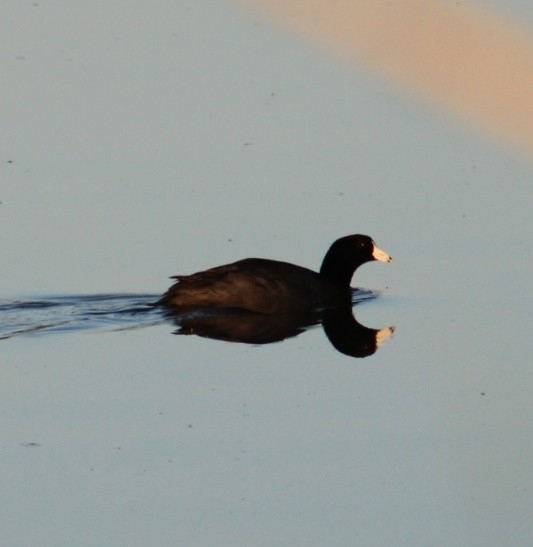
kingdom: Animalia
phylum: Chordata
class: Aves
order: Gruiformes
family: Rallidae
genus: Fulica
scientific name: Fulica americana
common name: American coot
